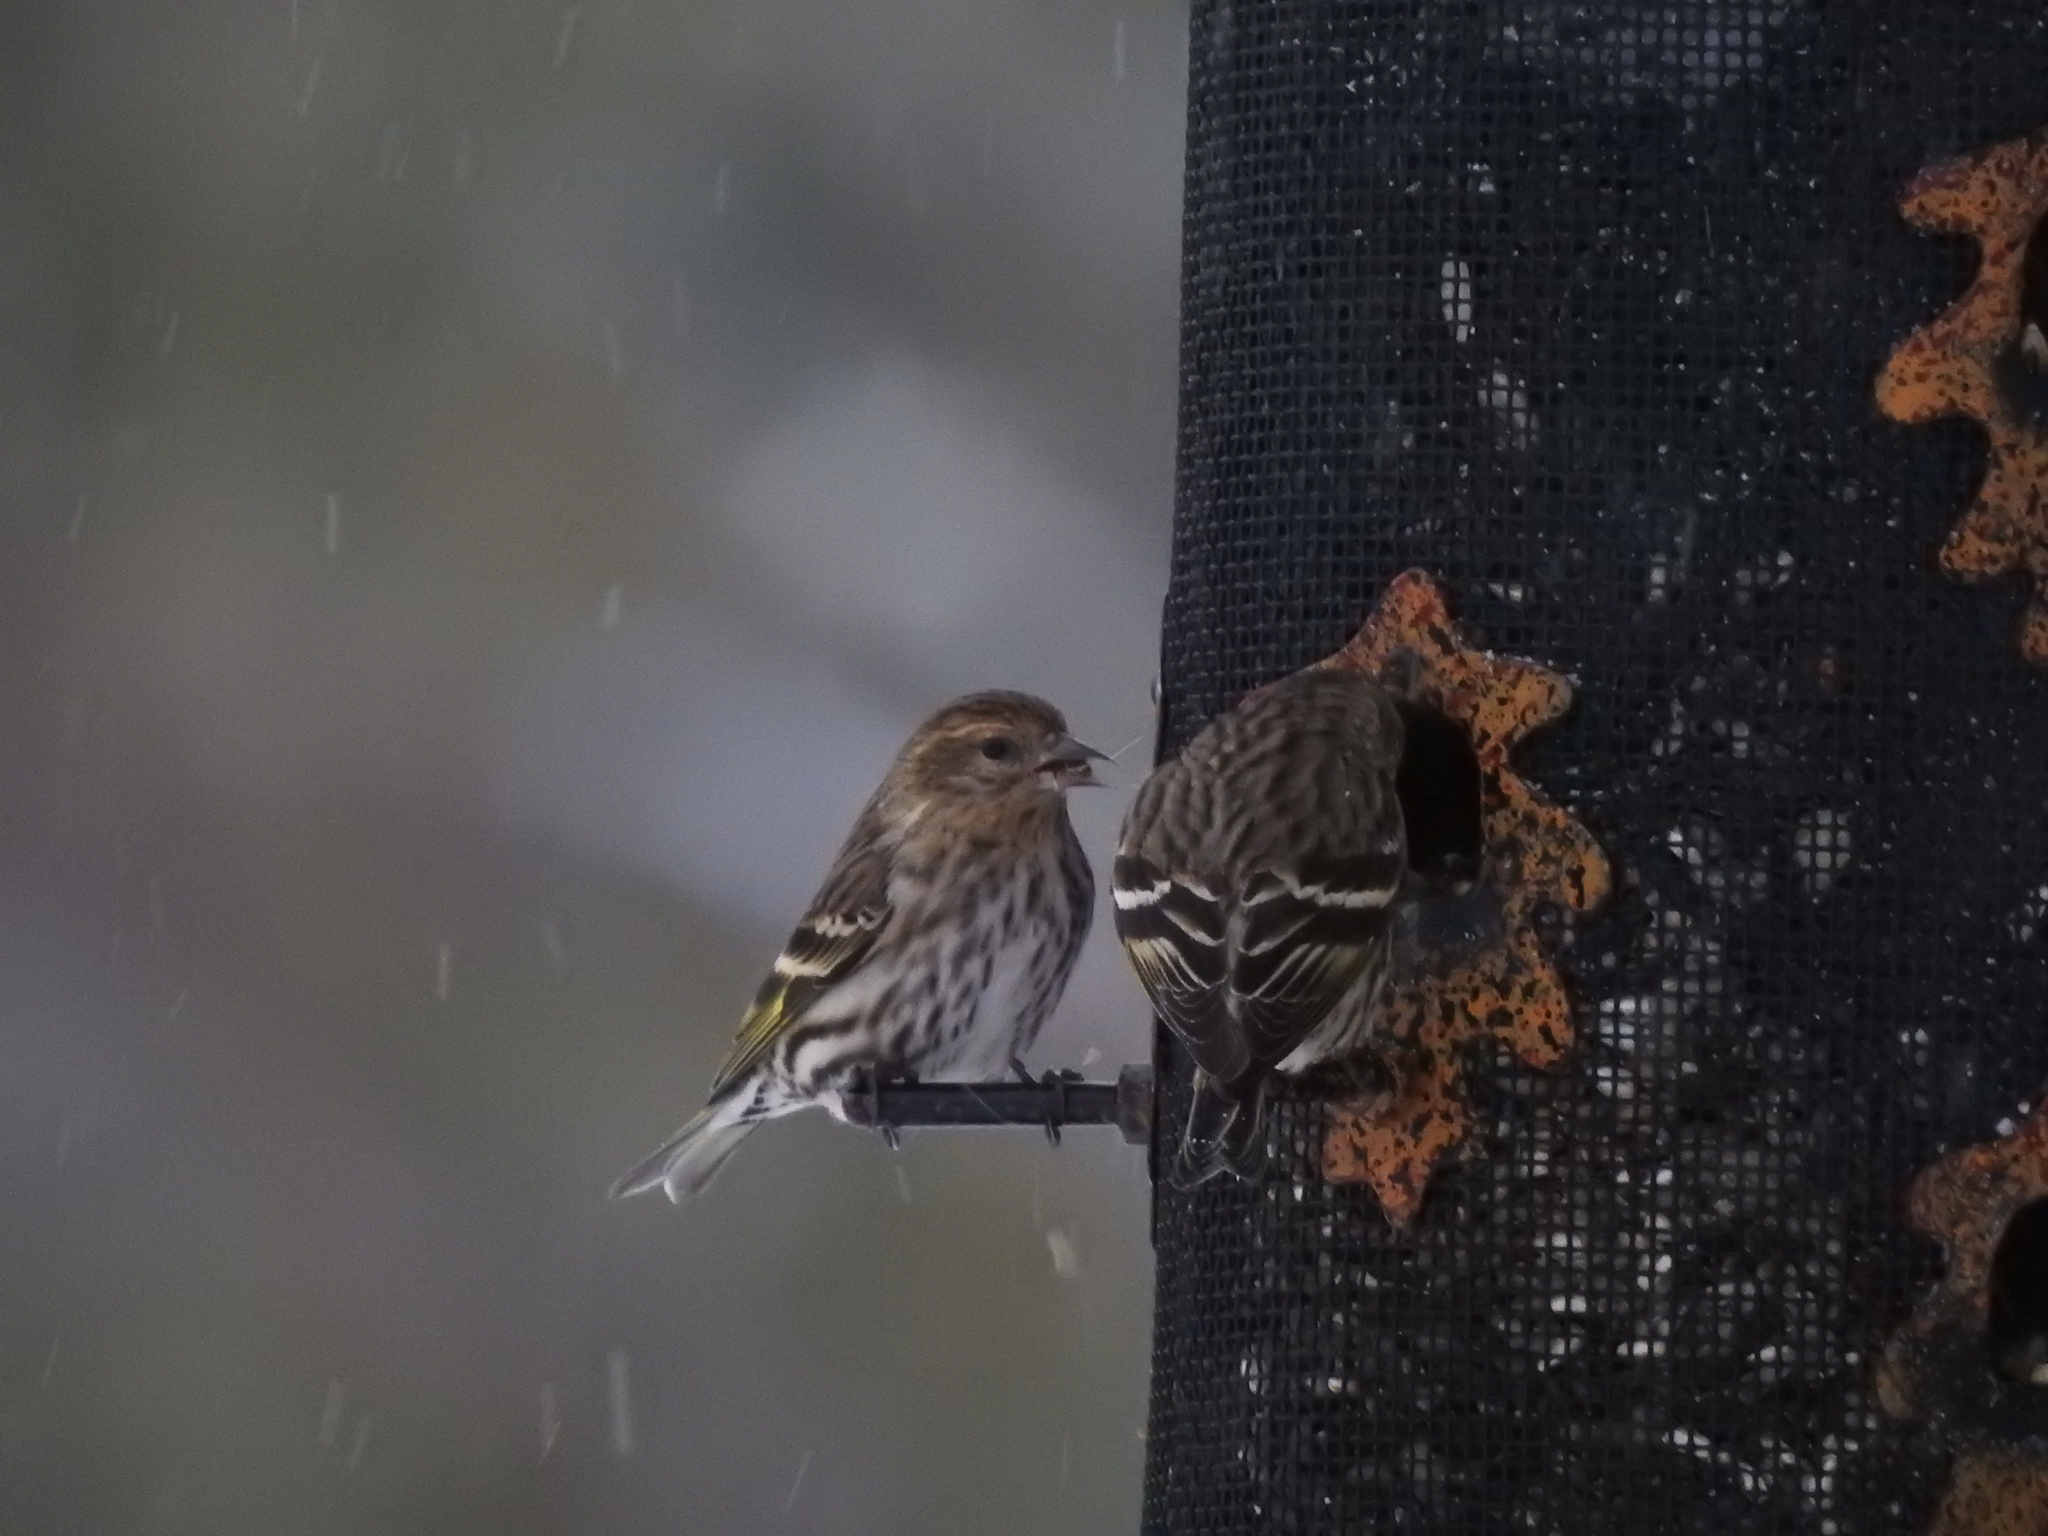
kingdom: Animalia
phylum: Chordata
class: Aves
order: Passeriformes
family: Fringillidae
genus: Spinus
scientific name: Spinus pinus
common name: Pine siskin
